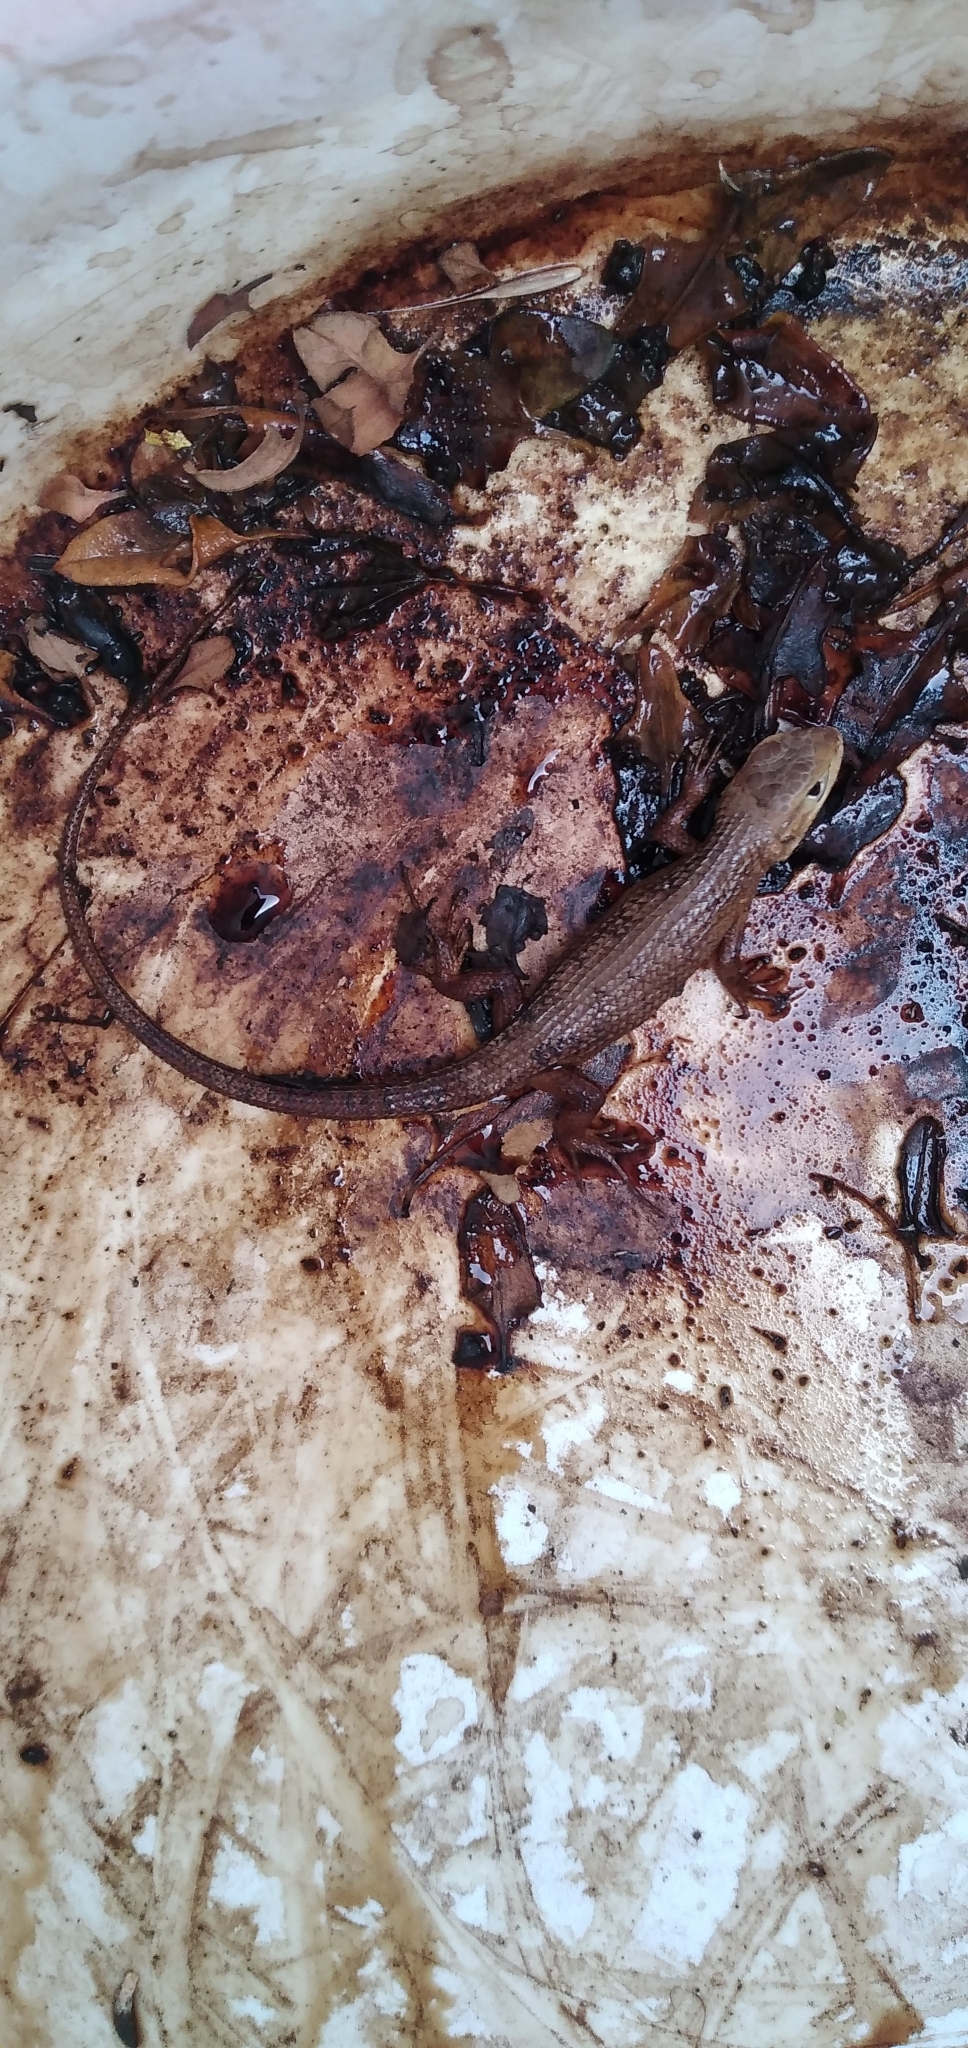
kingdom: Animalia
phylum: Chordata
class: Squamata
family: Liolaemidae
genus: Liolaemus
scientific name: Liolaemus chiliensis
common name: Chilean tree iguana
